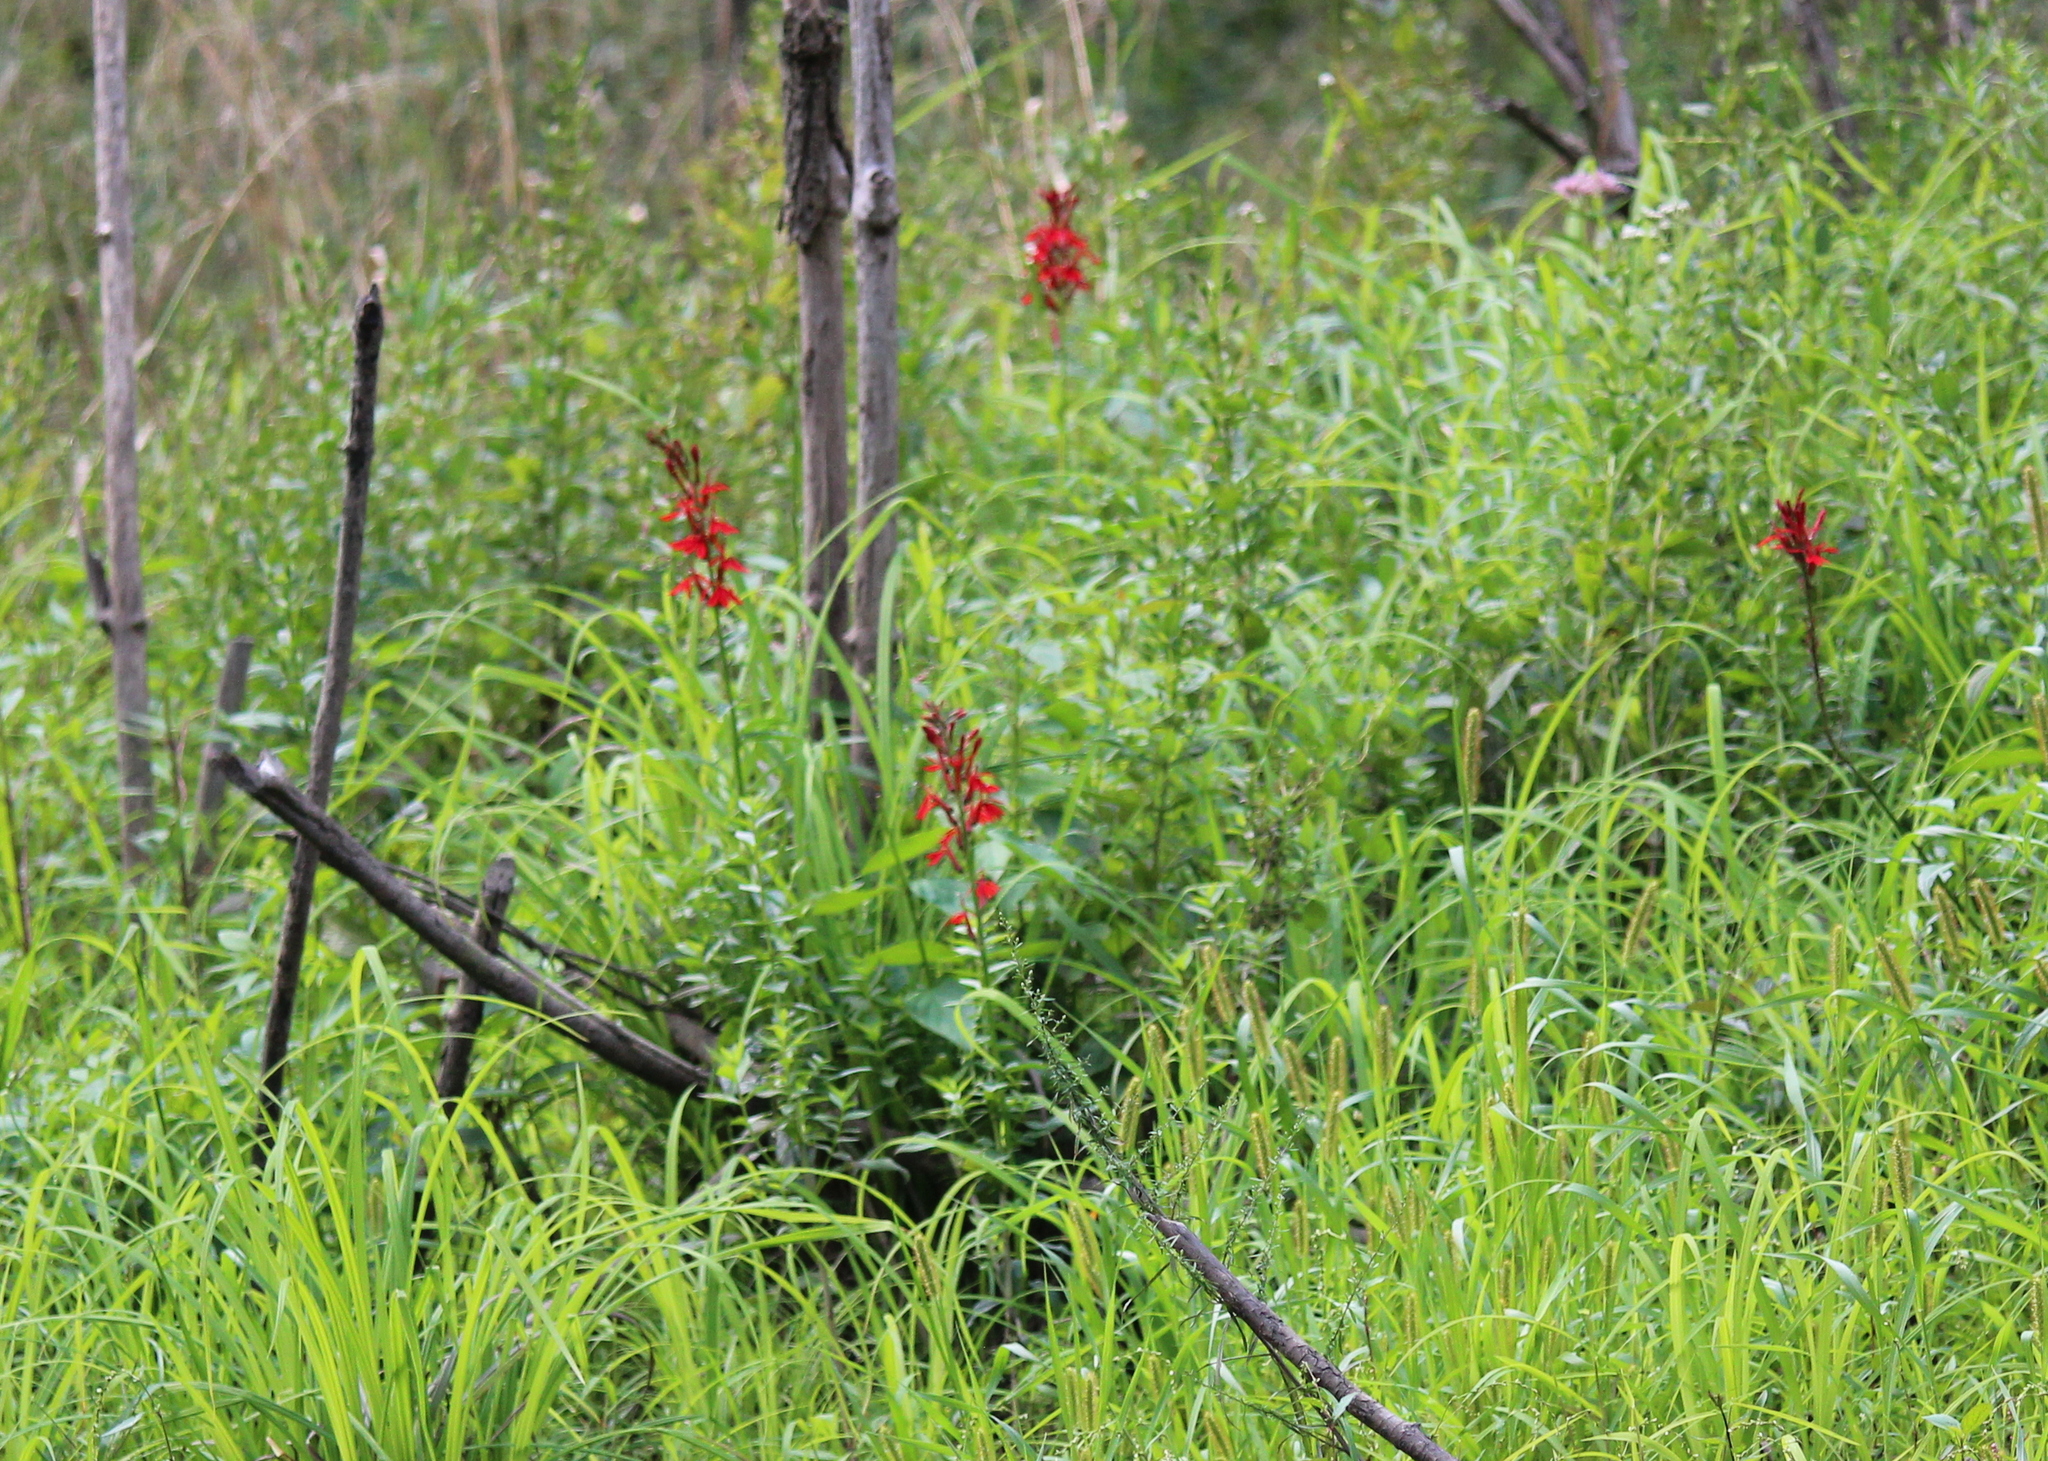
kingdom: Plantae
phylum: Tracheophyta
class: Magnoliopsida
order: Asterales
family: Campanulaceae
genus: Lobelia
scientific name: Lobelia cardinalis
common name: Cardinal flower
